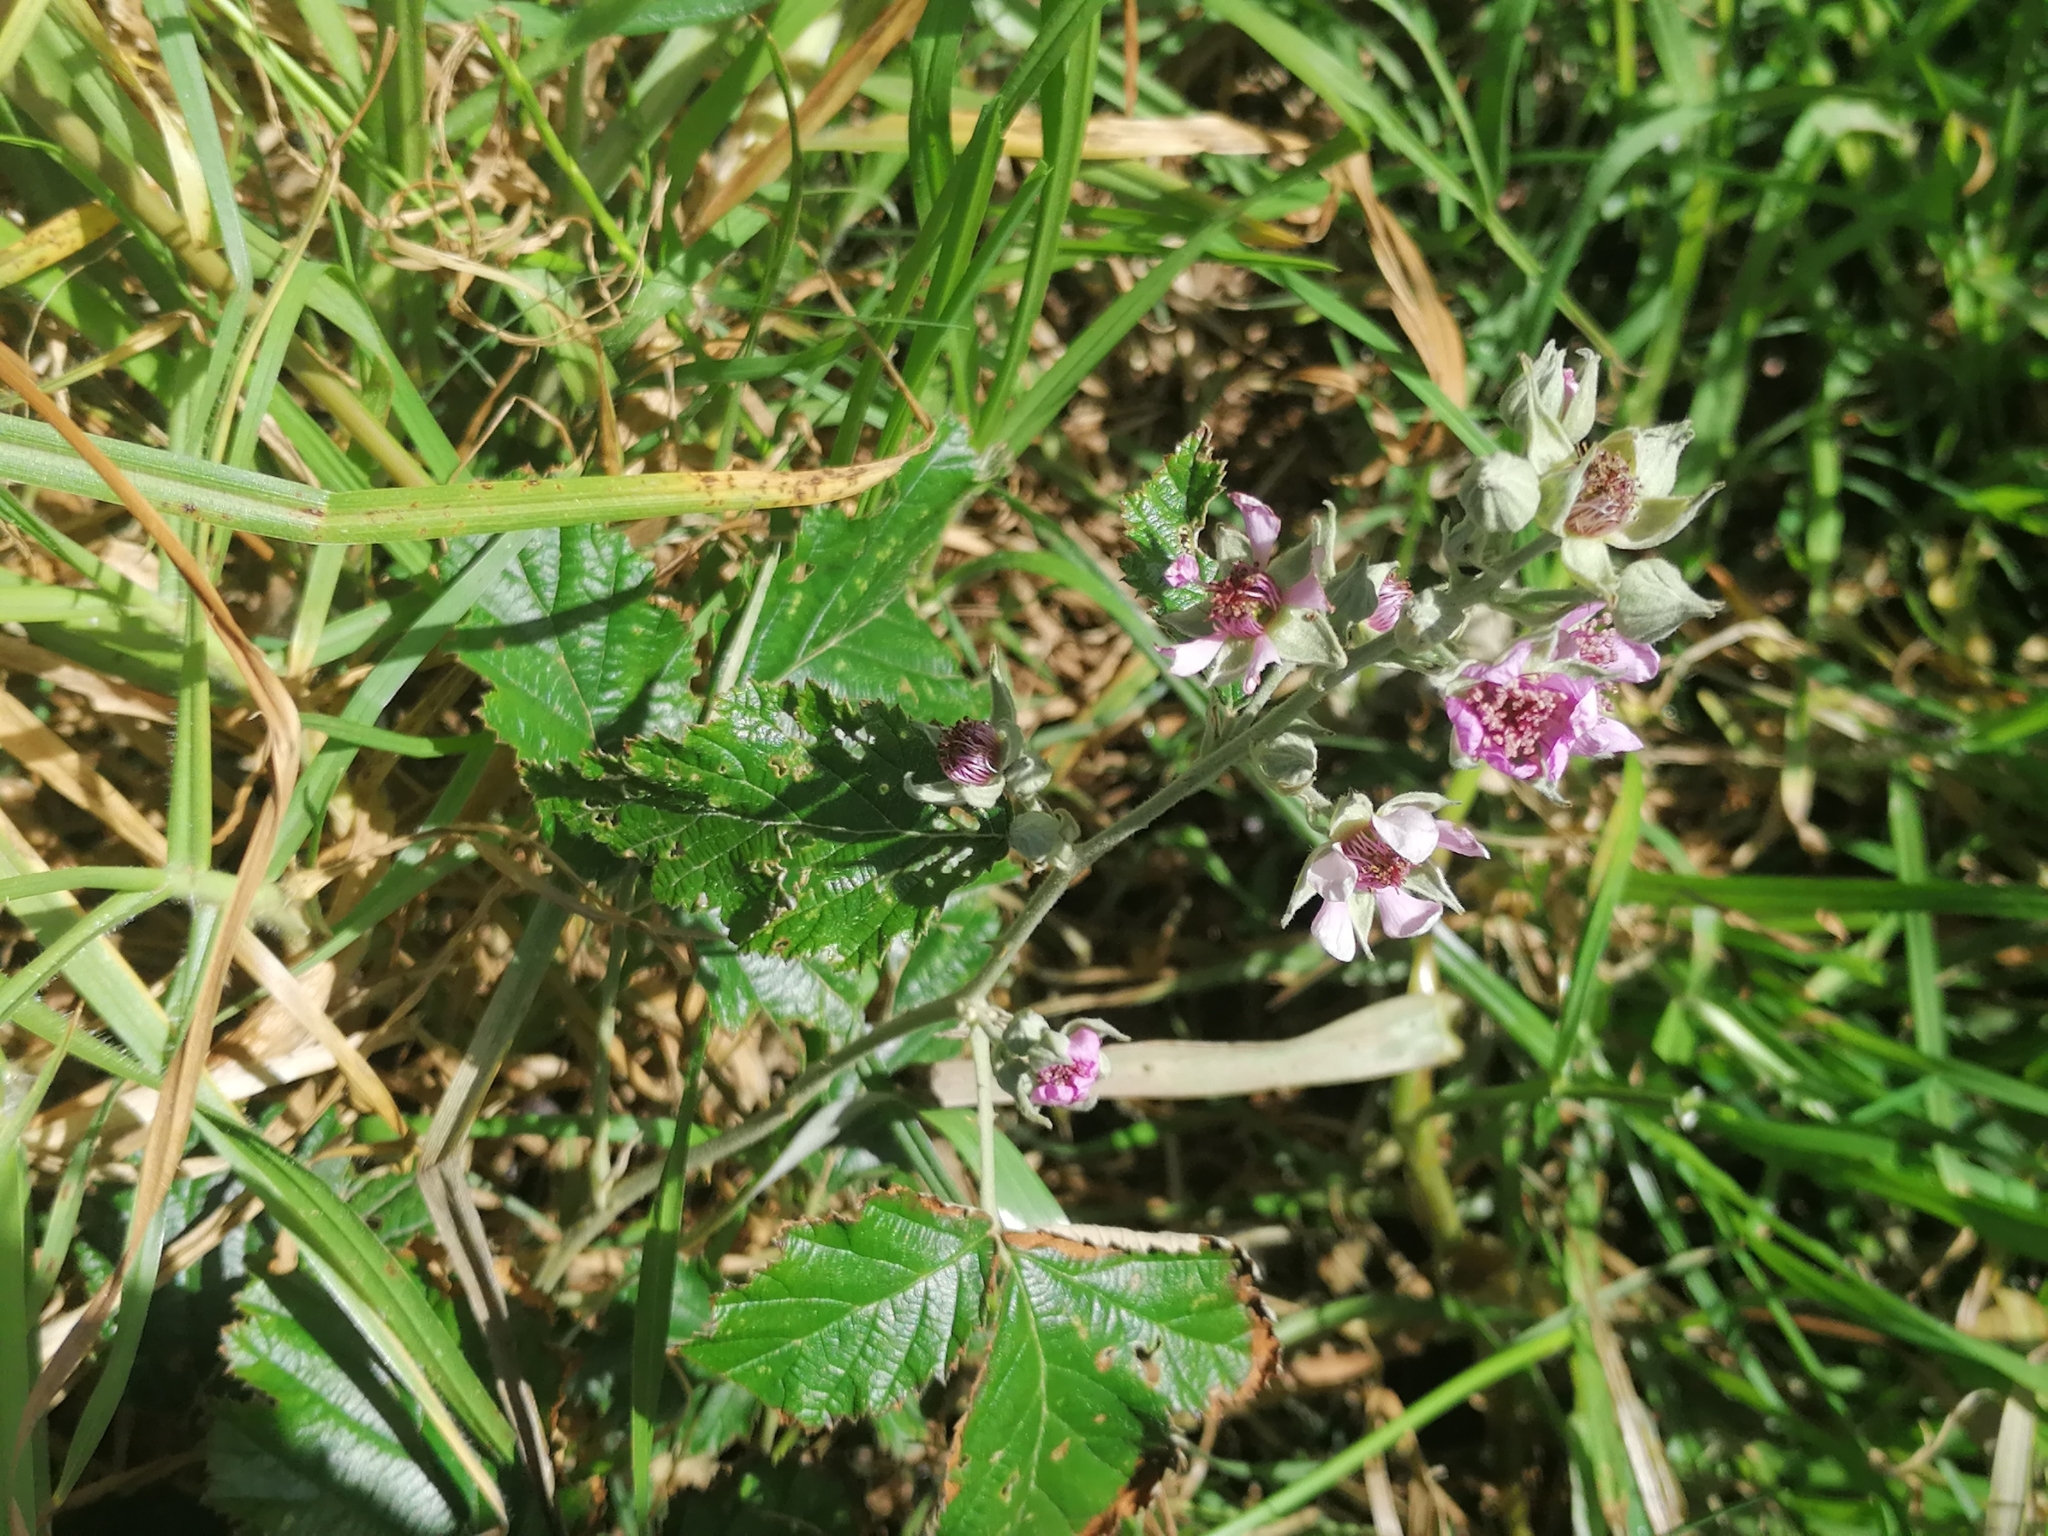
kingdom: Plantae
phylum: Tracheophyta
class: Magnoliopsida
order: Rosales
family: Rosaceae
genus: Rubus
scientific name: Rubus rigidus
